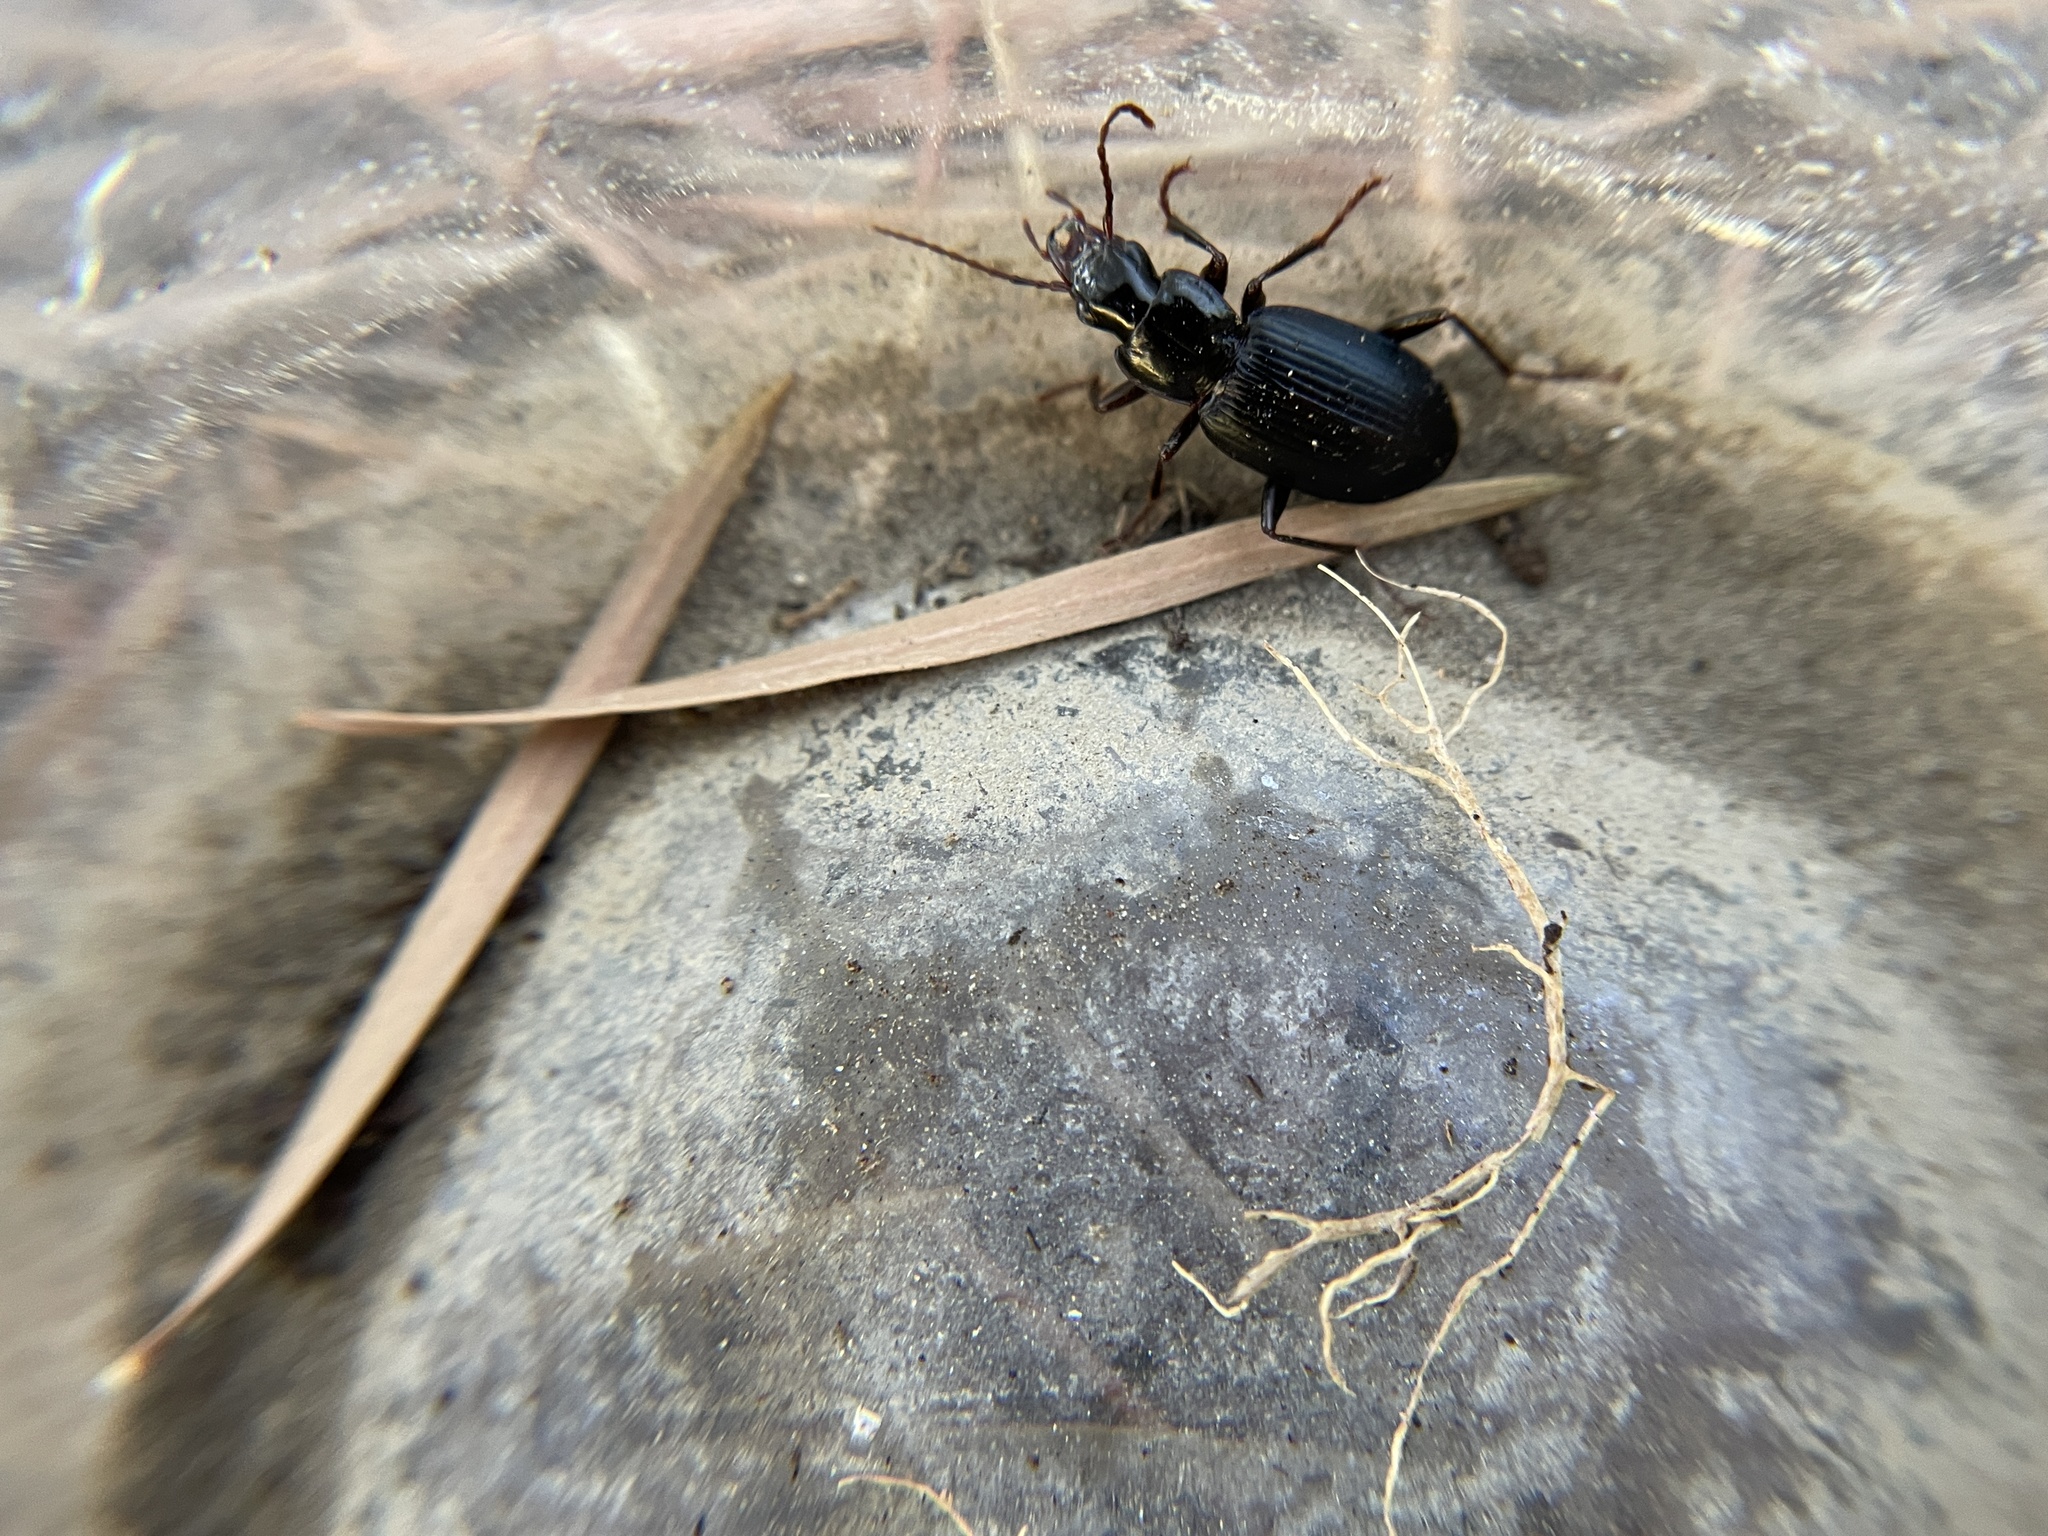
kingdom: Animalia
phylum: Arthropoda
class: Insecta
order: Coleoptera
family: Carabidae
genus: Laemostenus
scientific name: Laemostenus complanatus
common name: Cosmopolitan ground beetle
